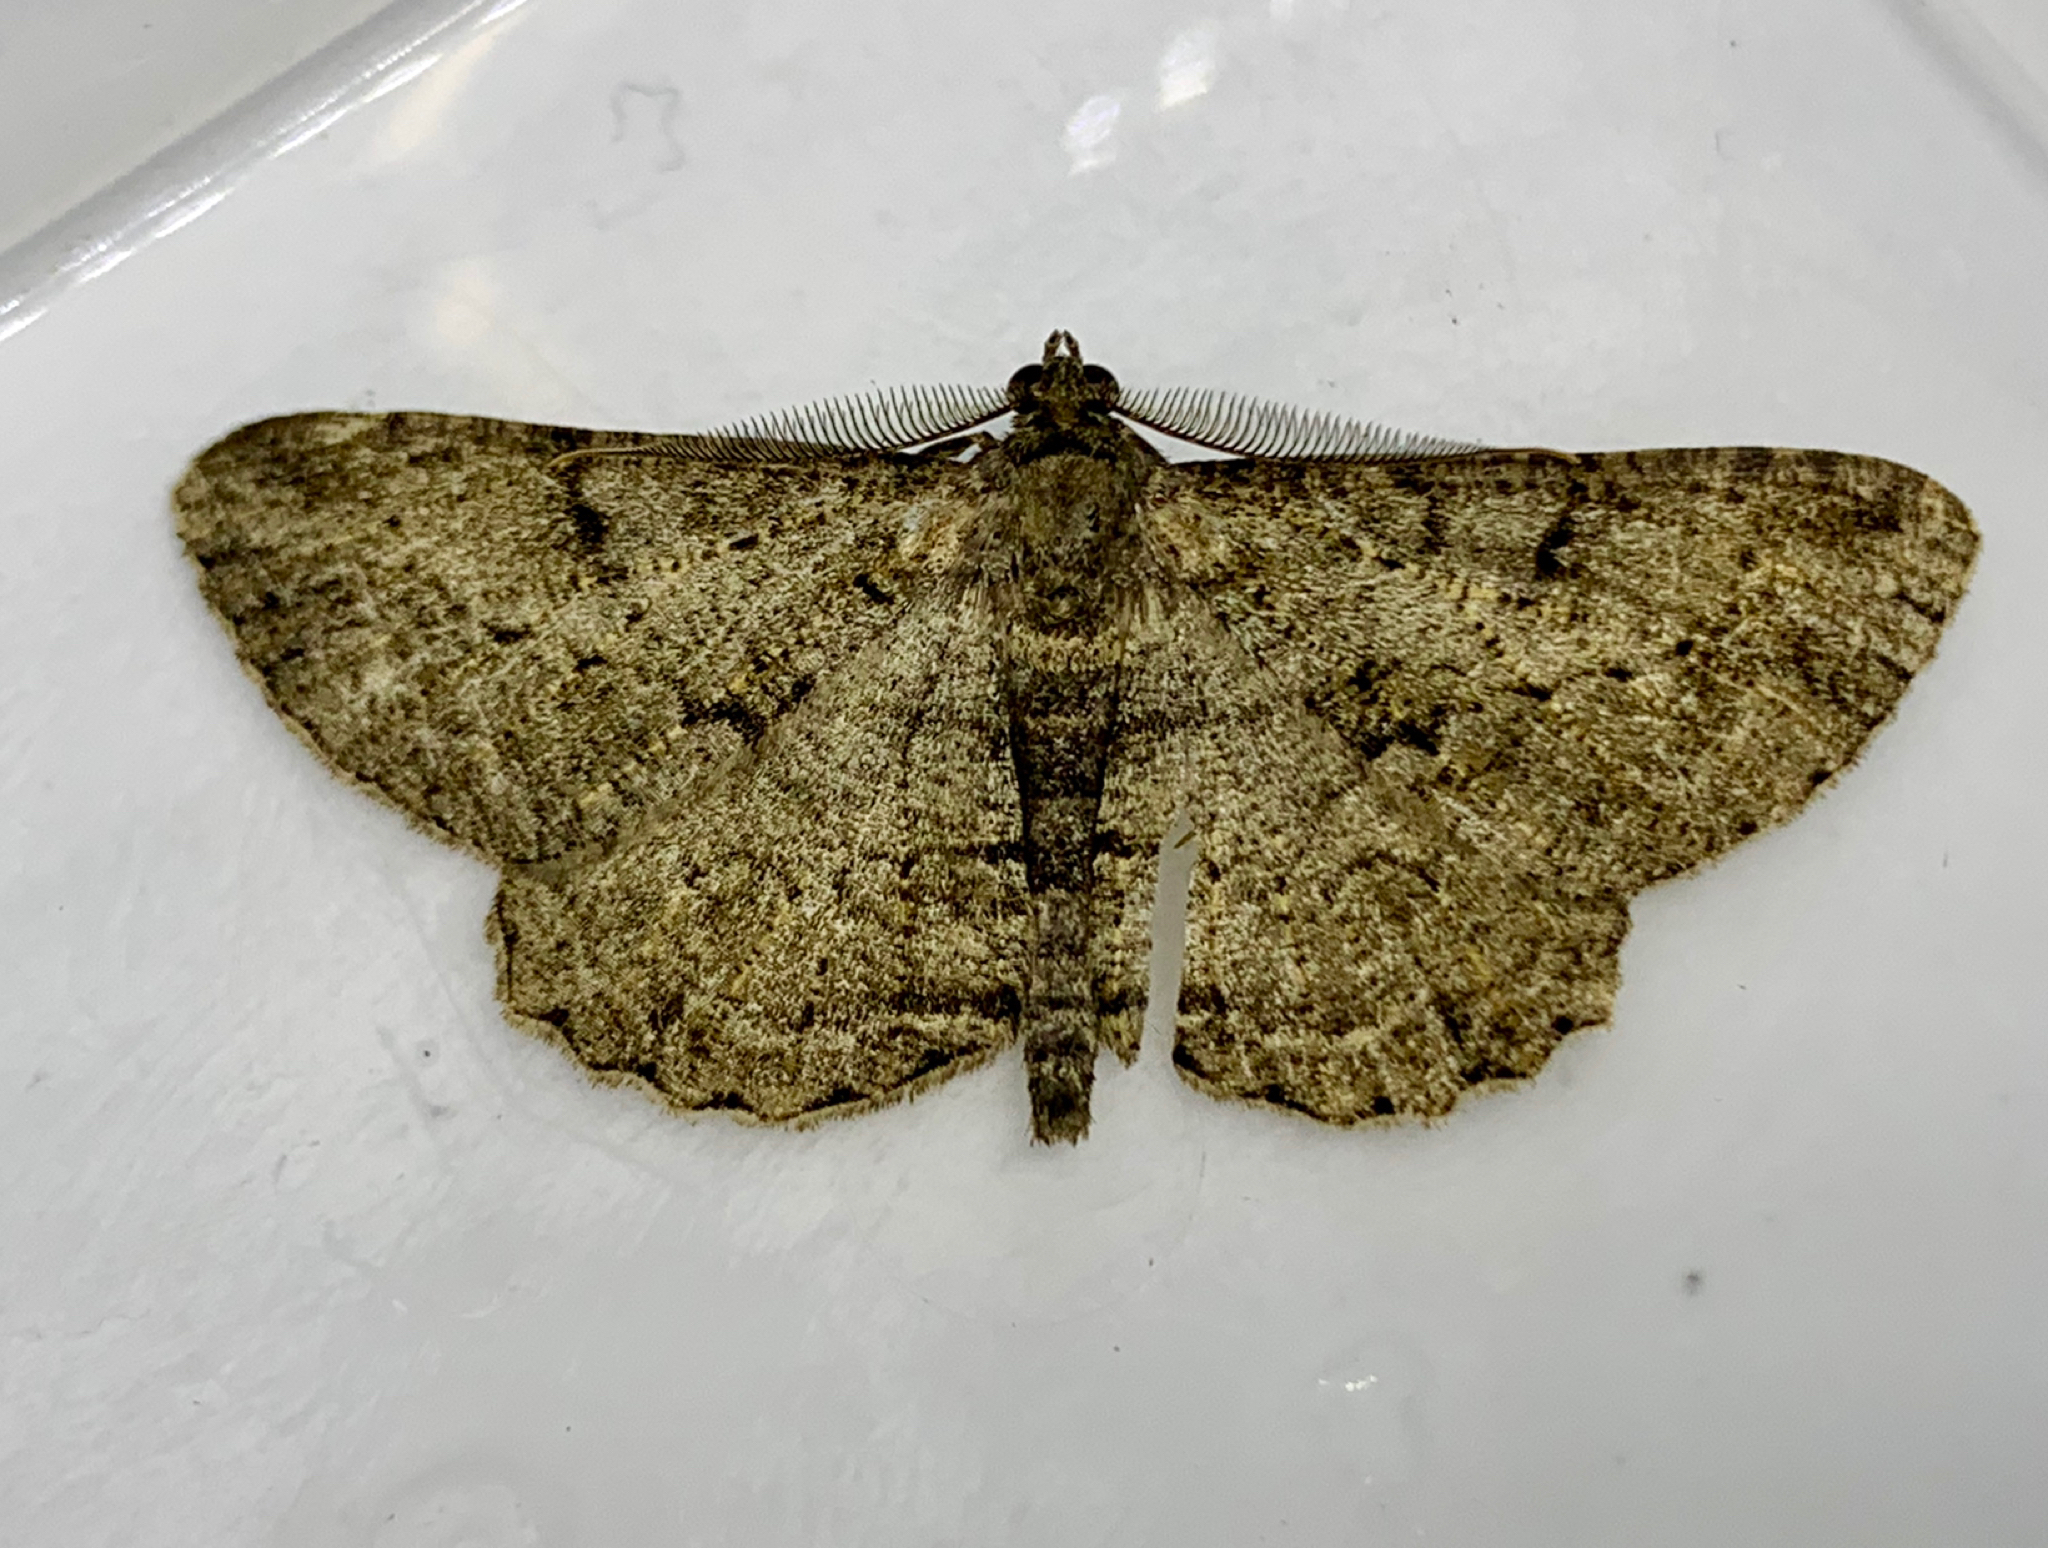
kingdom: Animalia
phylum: Arthropoda
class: Insecta
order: Lepidoptera
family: Geometridae
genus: Peribatodes
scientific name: Peribatodes rhomboidaria
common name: Willow beauty
